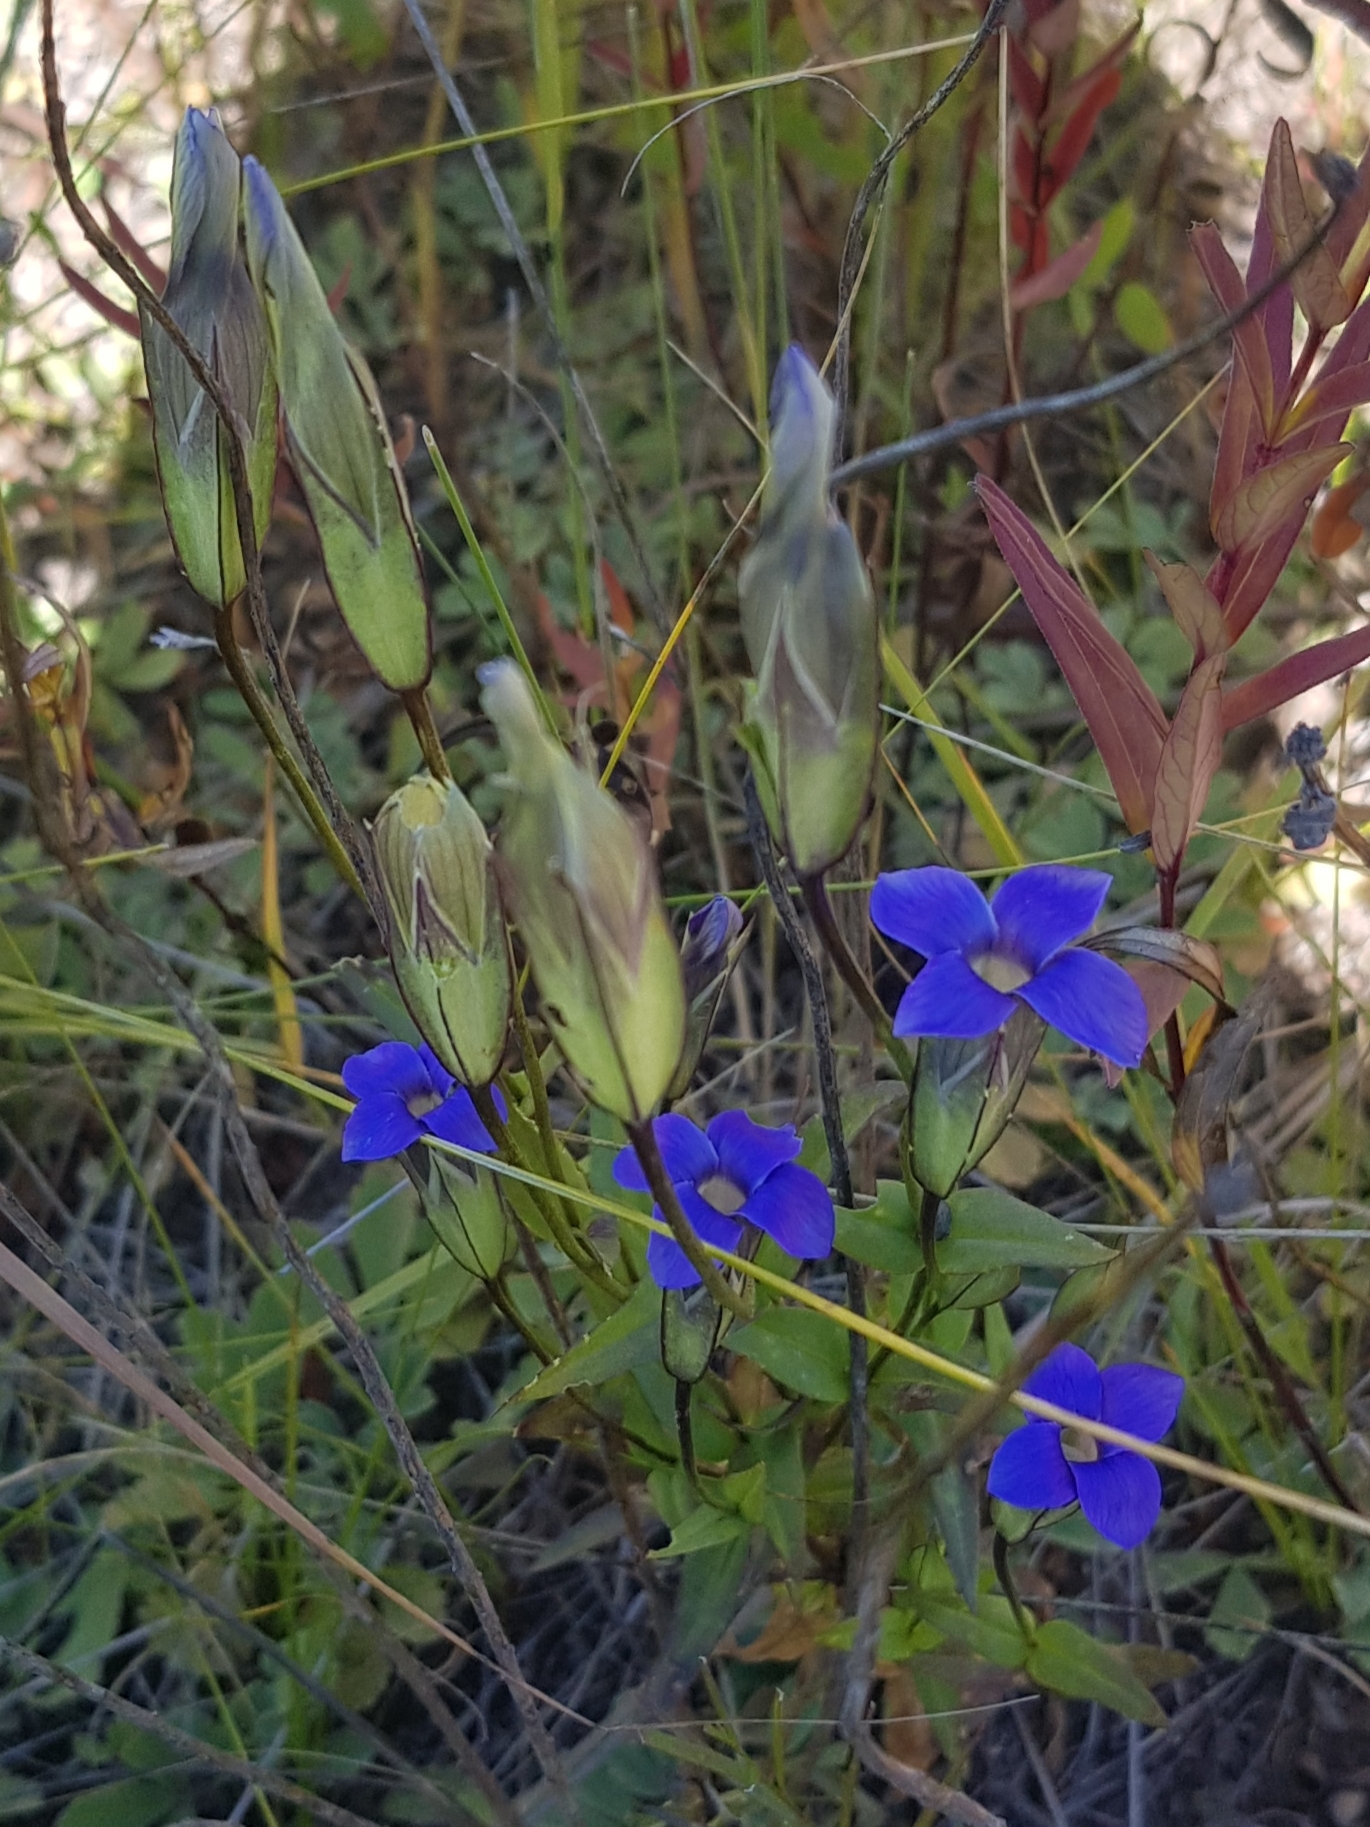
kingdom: Plantae
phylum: Tracheophyta
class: Magnoliopsida
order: Gentianales
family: Gentianaceae
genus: Gentianopsis
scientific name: Gentianopsis barbata
